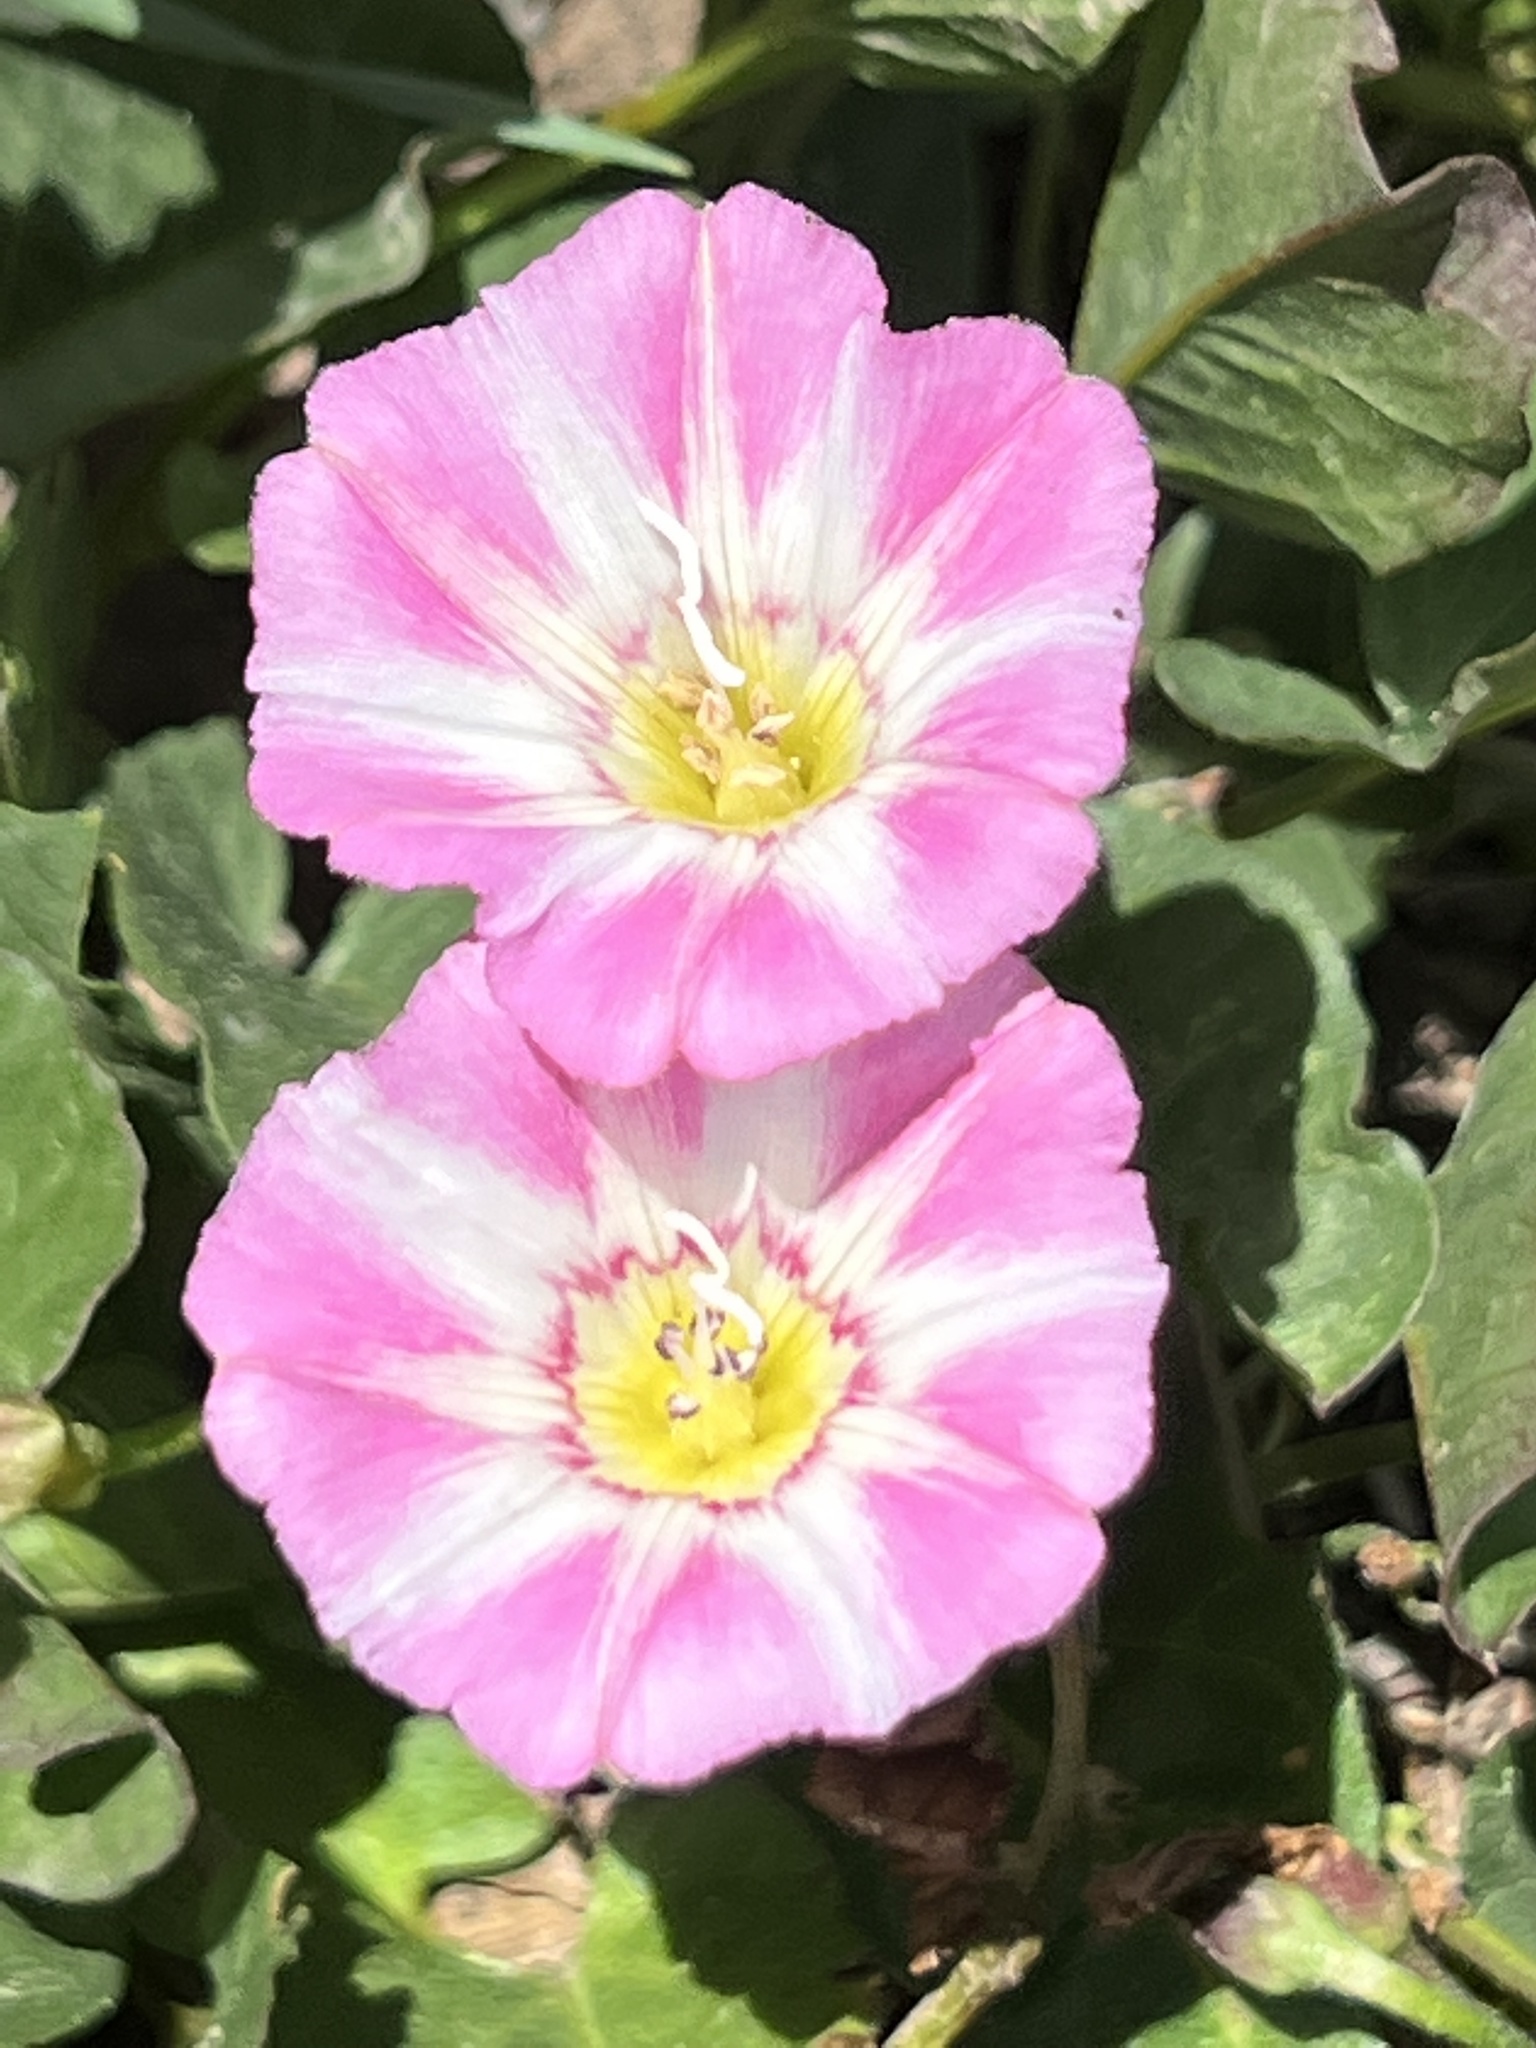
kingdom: Plantae
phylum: Tracheophyta
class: Magnoliopsida
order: Solanales
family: Convolvulaceae
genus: Convolvulus
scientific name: Convolvulus arvensis
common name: Field bindweed
